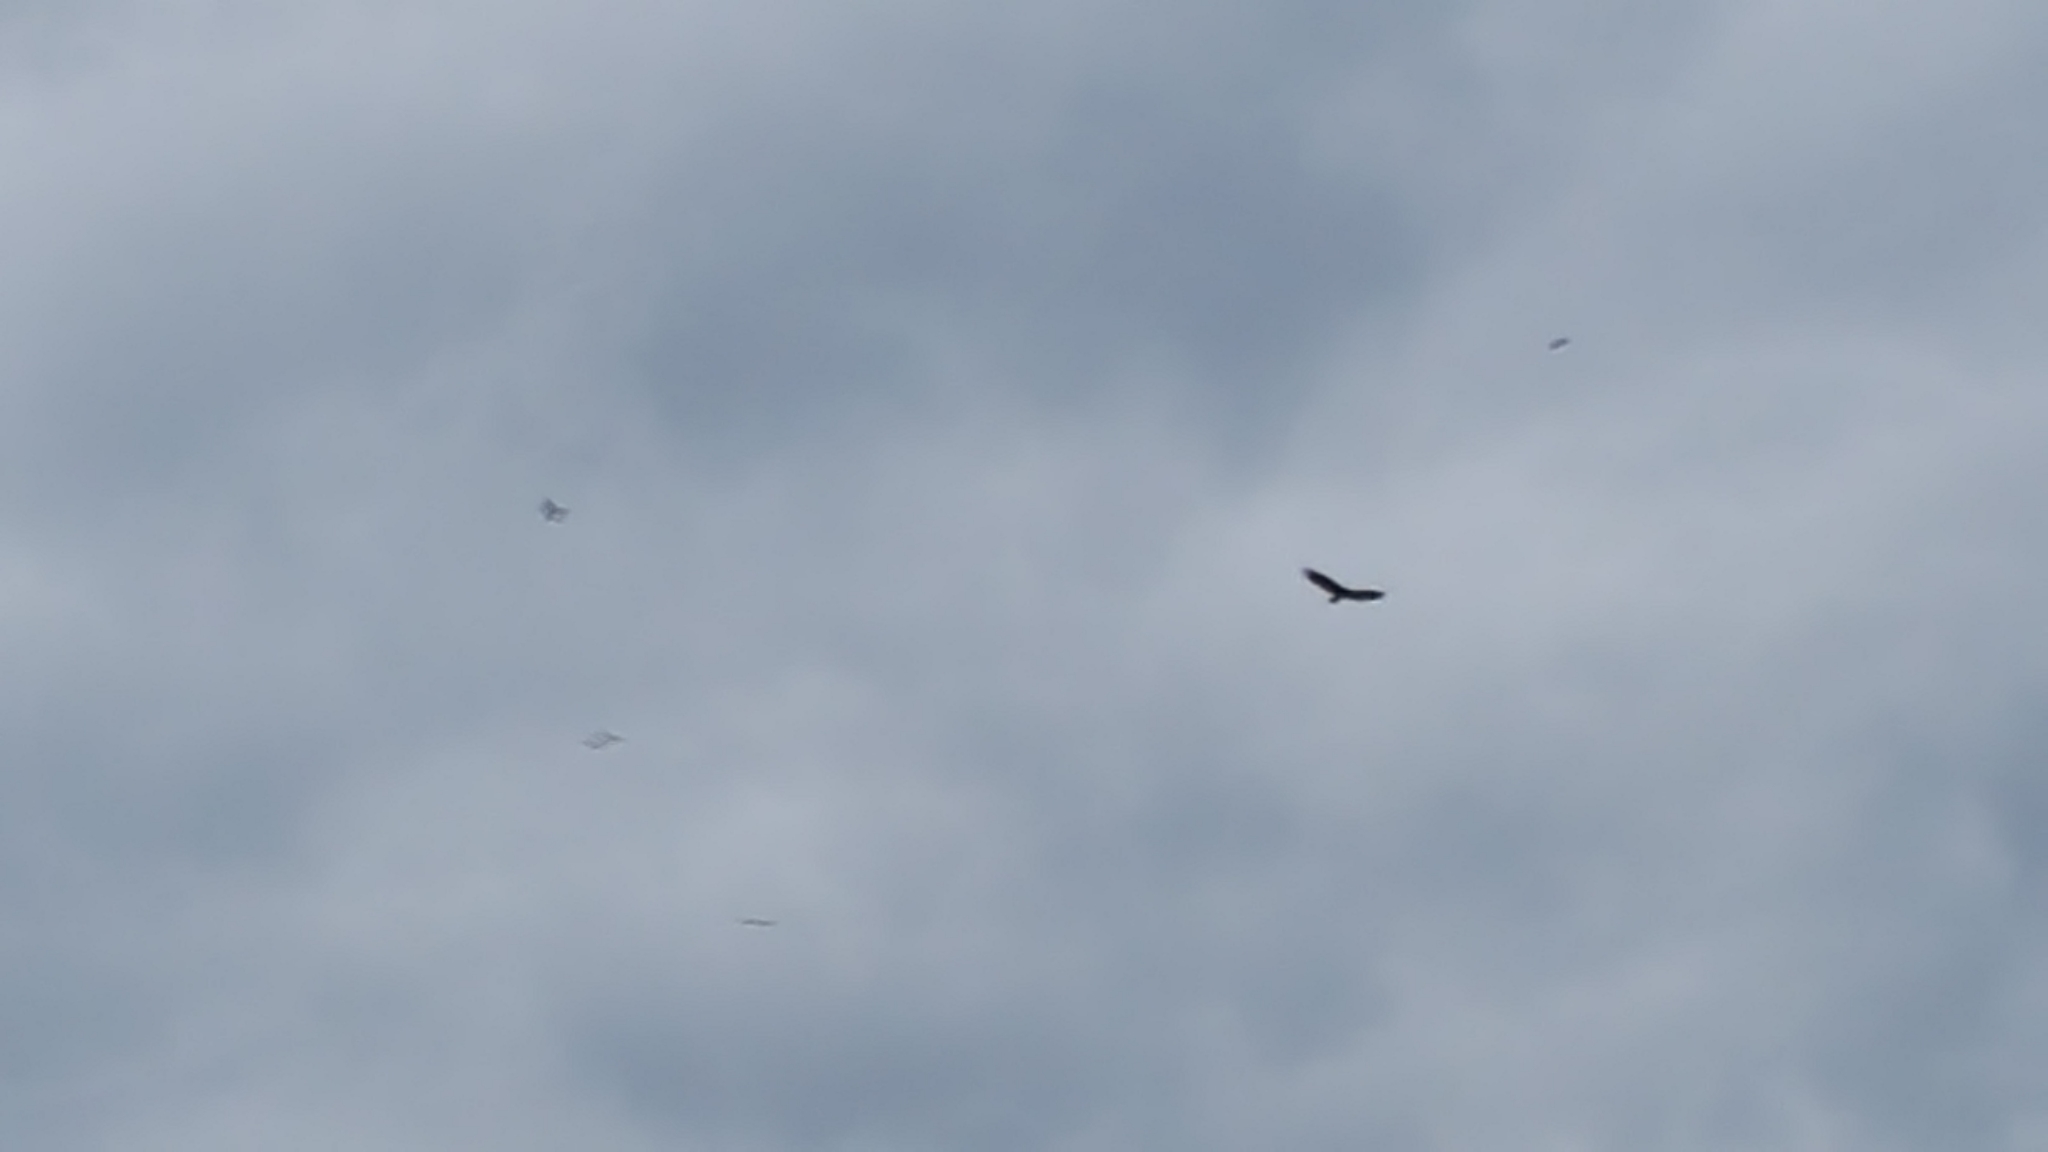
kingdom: Animalia
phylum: Chordata
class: Aves
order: Accipitriformes
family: Cathartidae
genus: Cathartes
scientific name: Cathartes aura
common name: Turkey vulture
